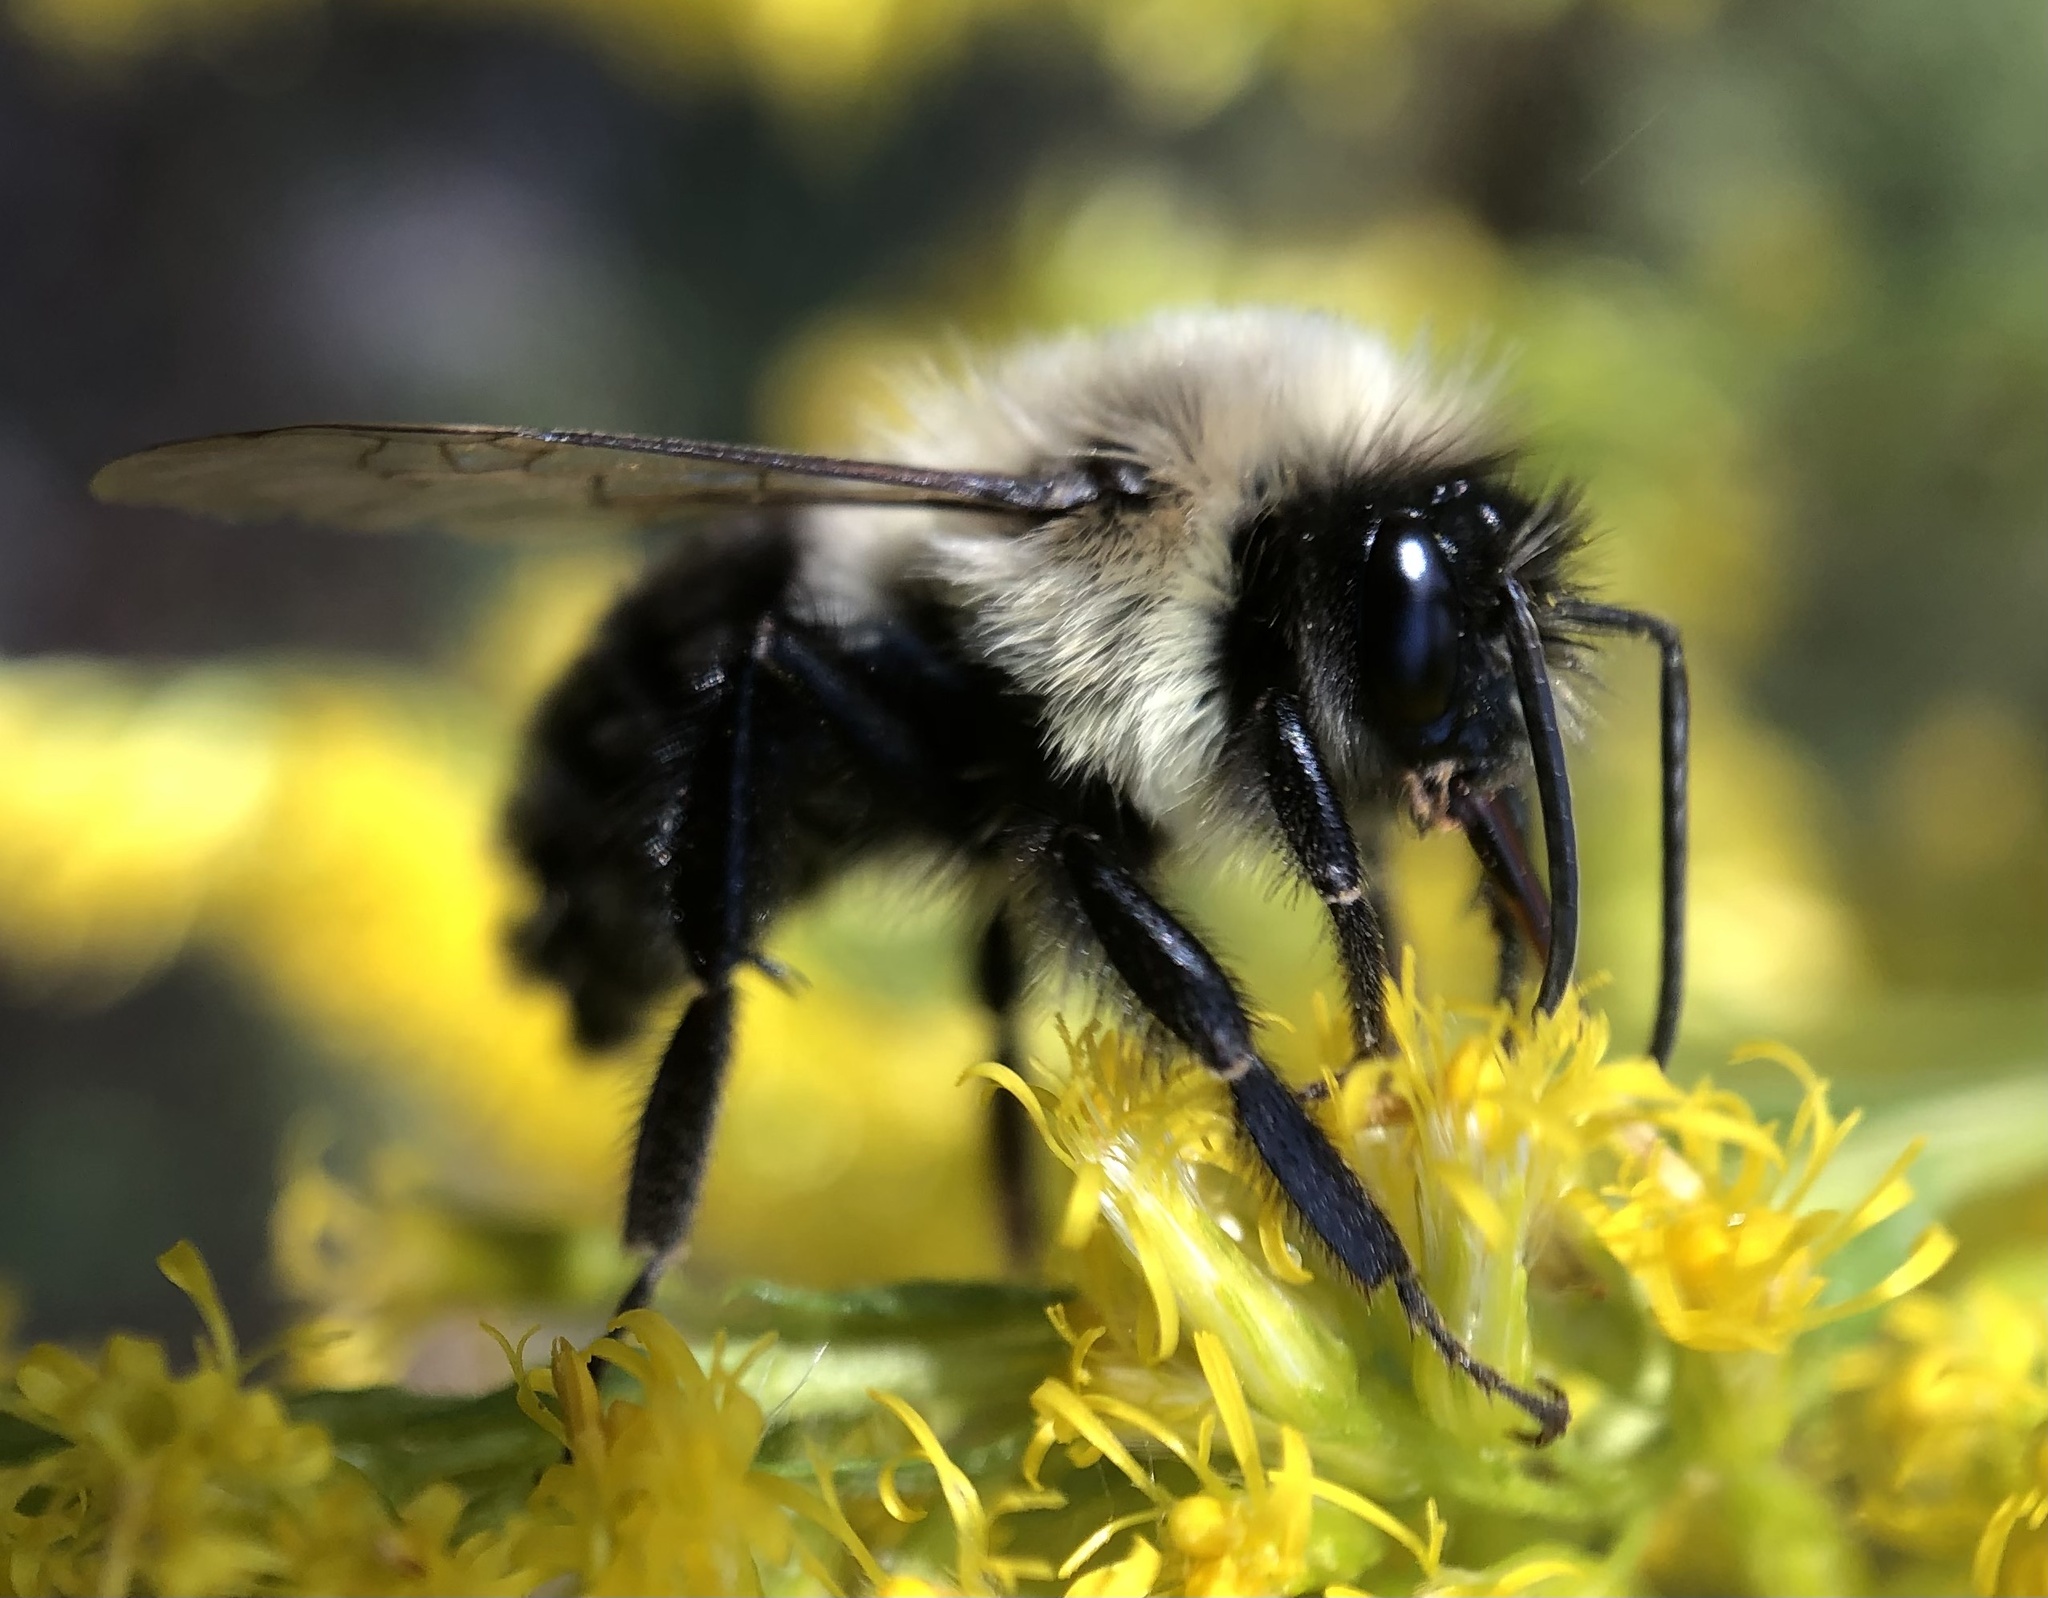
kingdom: Animalia
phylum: Arthropoda
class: Insecta
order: Hymenoptera
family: Apidae
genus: Bombus
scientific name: Bombus impatiens
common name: Common eastern bumble bee
